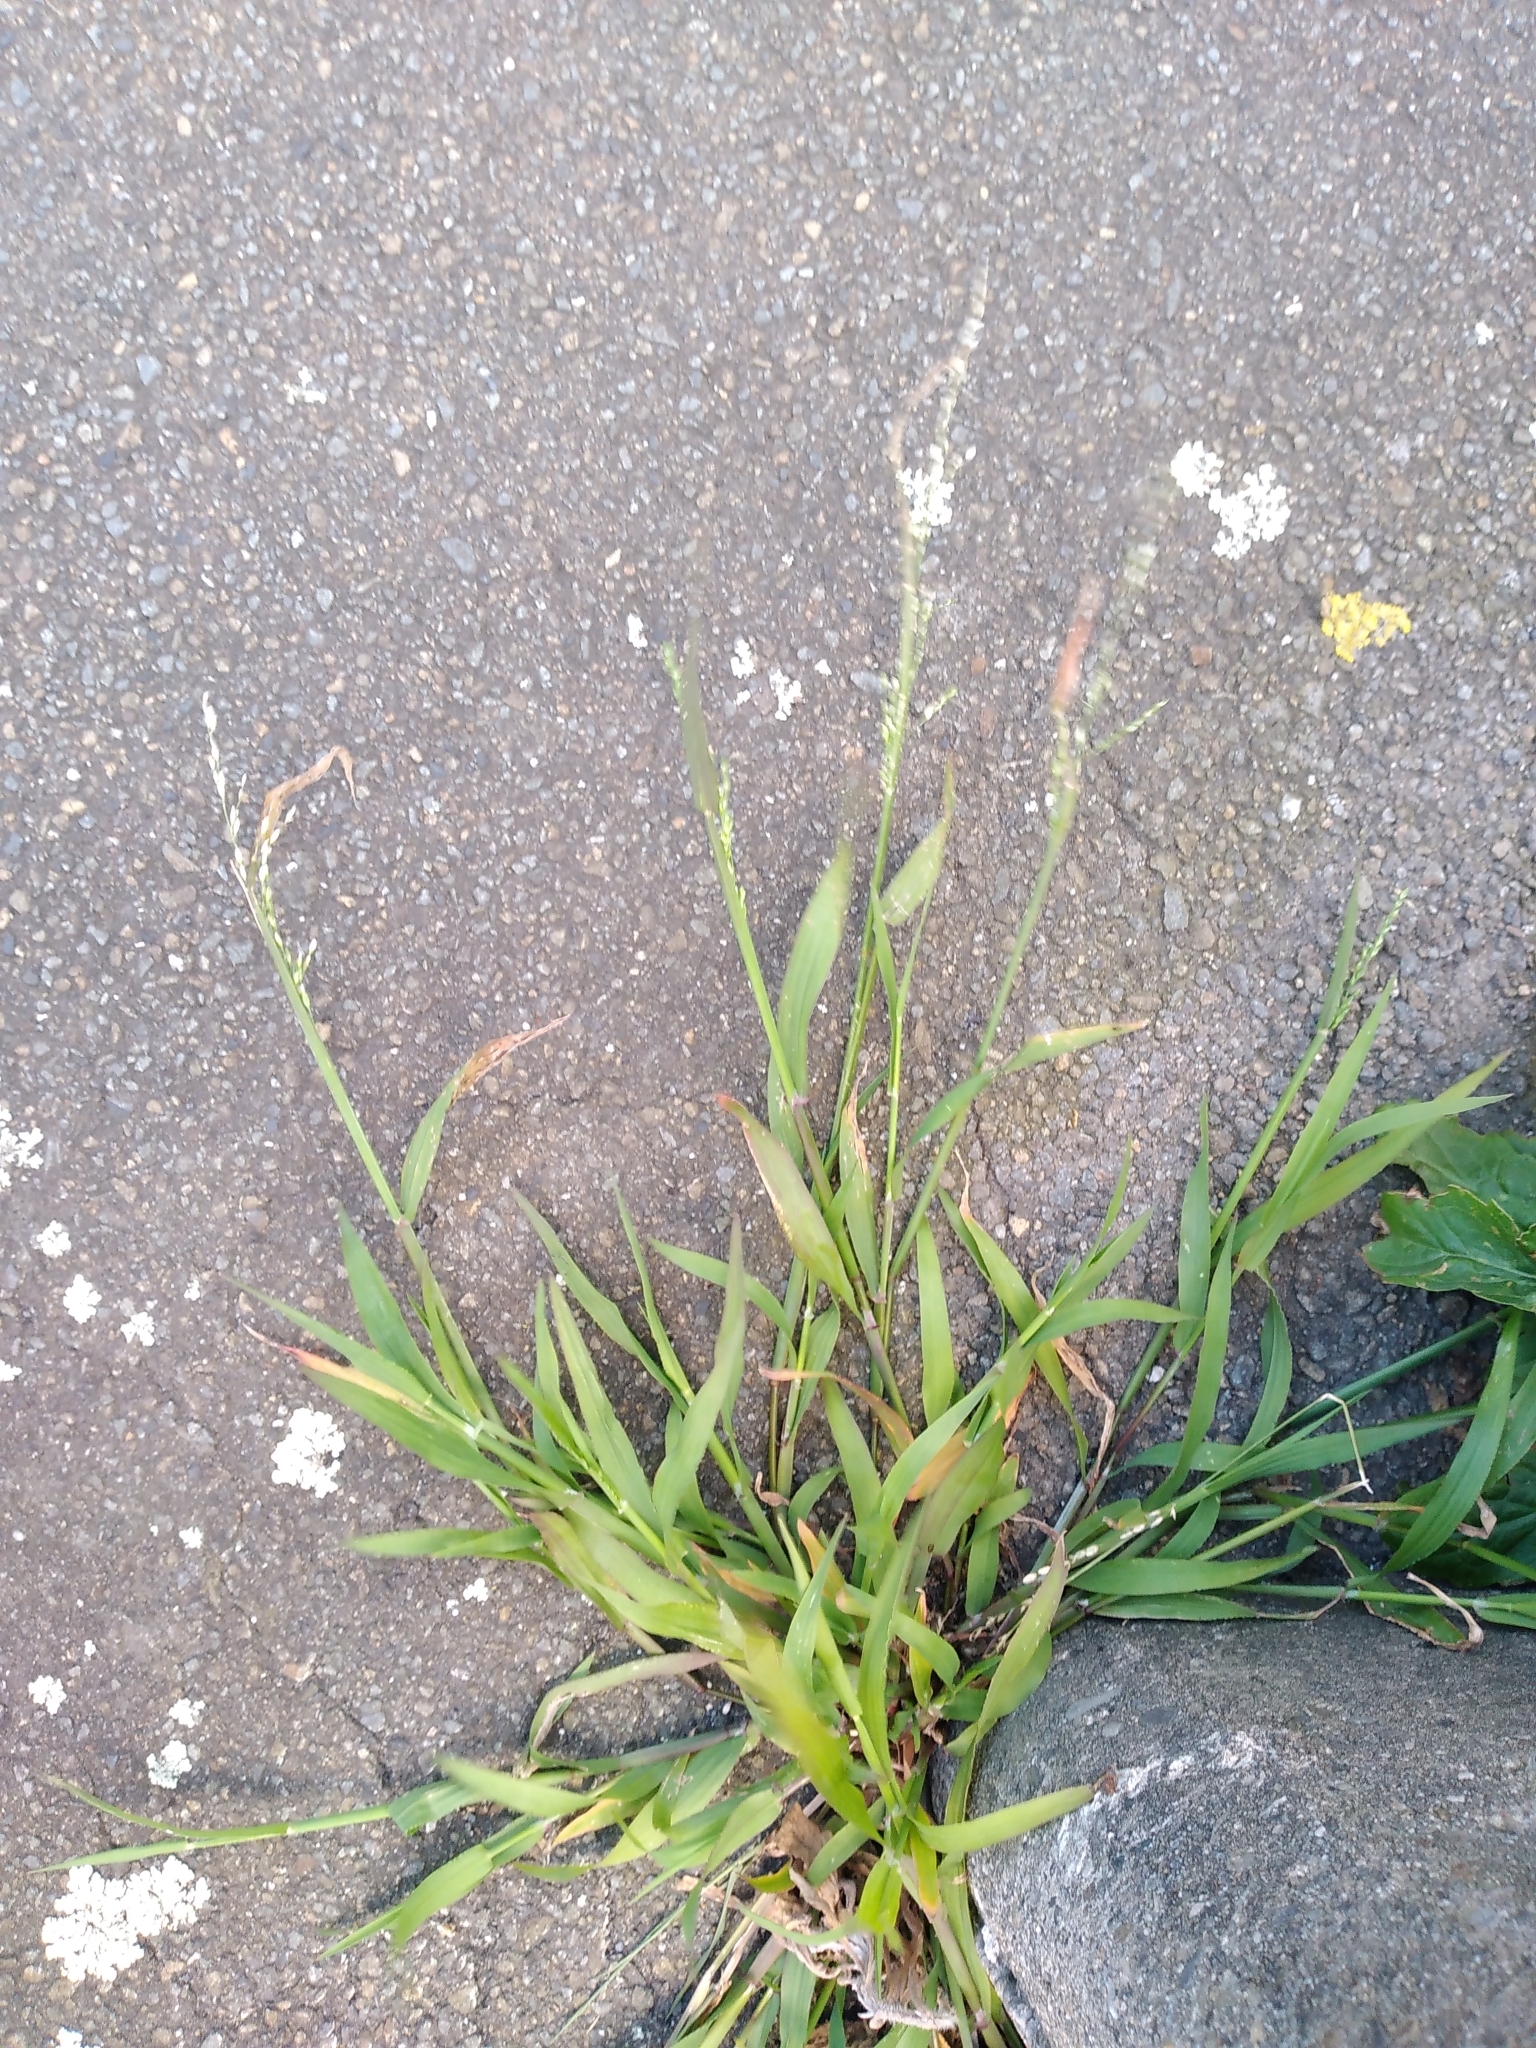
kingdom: Plantae
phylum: Tracheophyta
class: Liliopsida
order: Poales
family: Poaceae
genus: Ehrharta
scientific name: Ehrharta erecta
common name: Panic veldtgrass
